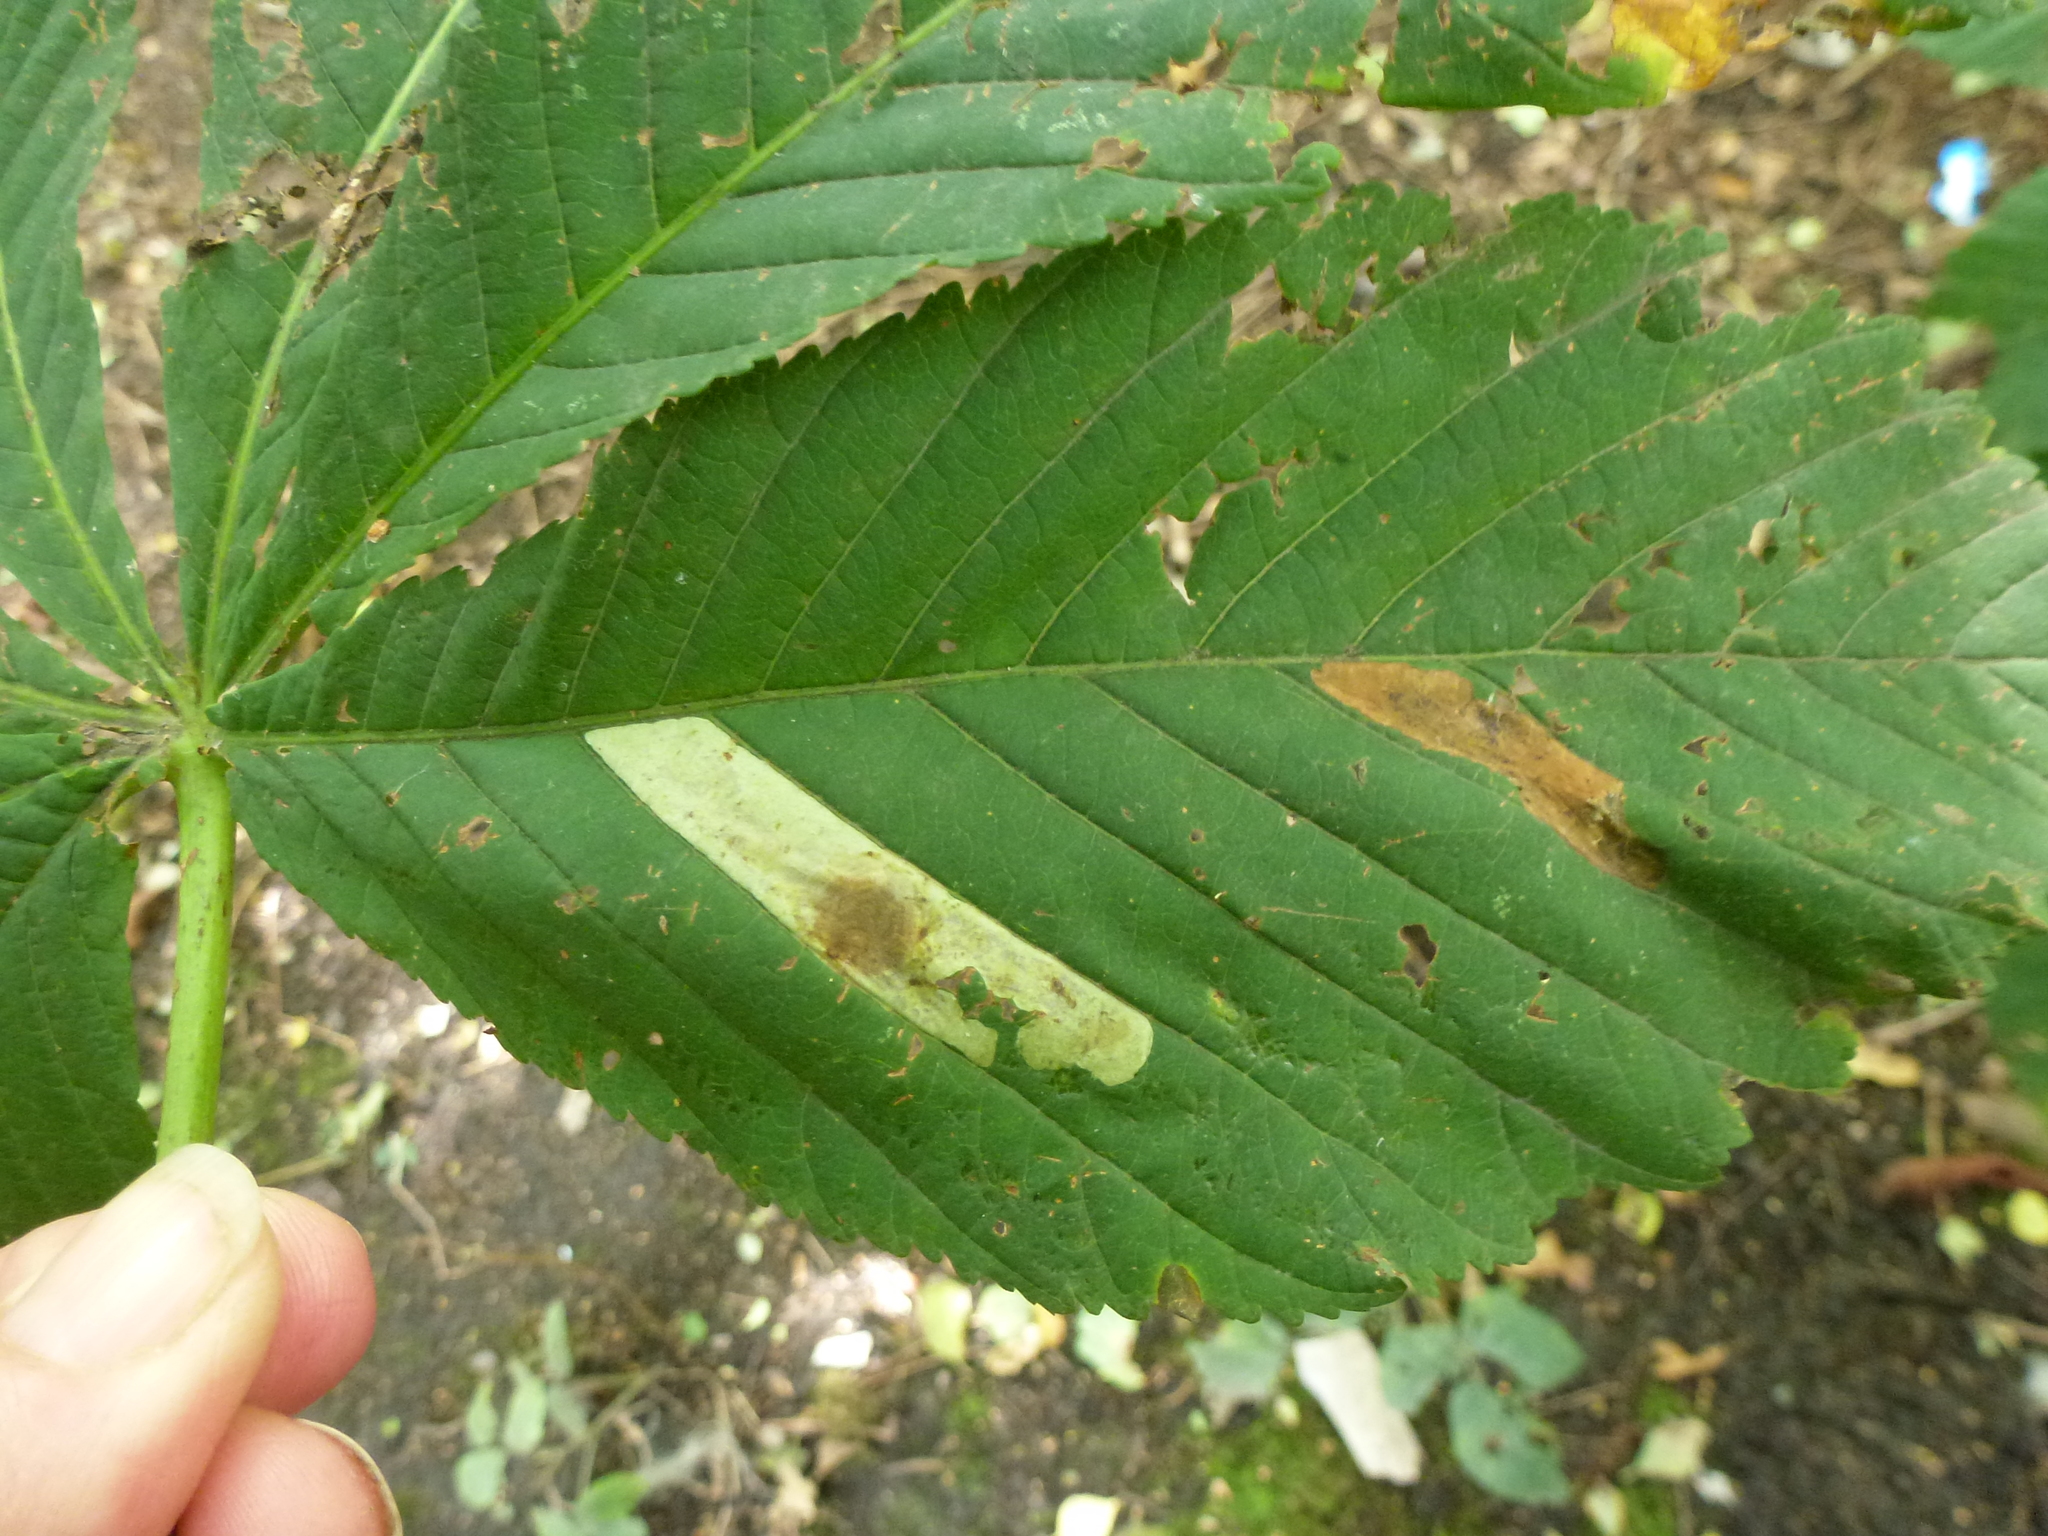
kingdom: Animalia
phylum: Arthropoda
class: Insecta
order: Lepidoptera
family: Gracillariidae
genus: Cameraria
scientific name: Cameraria ohridella
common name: Horse-chestnut leaf-miner
